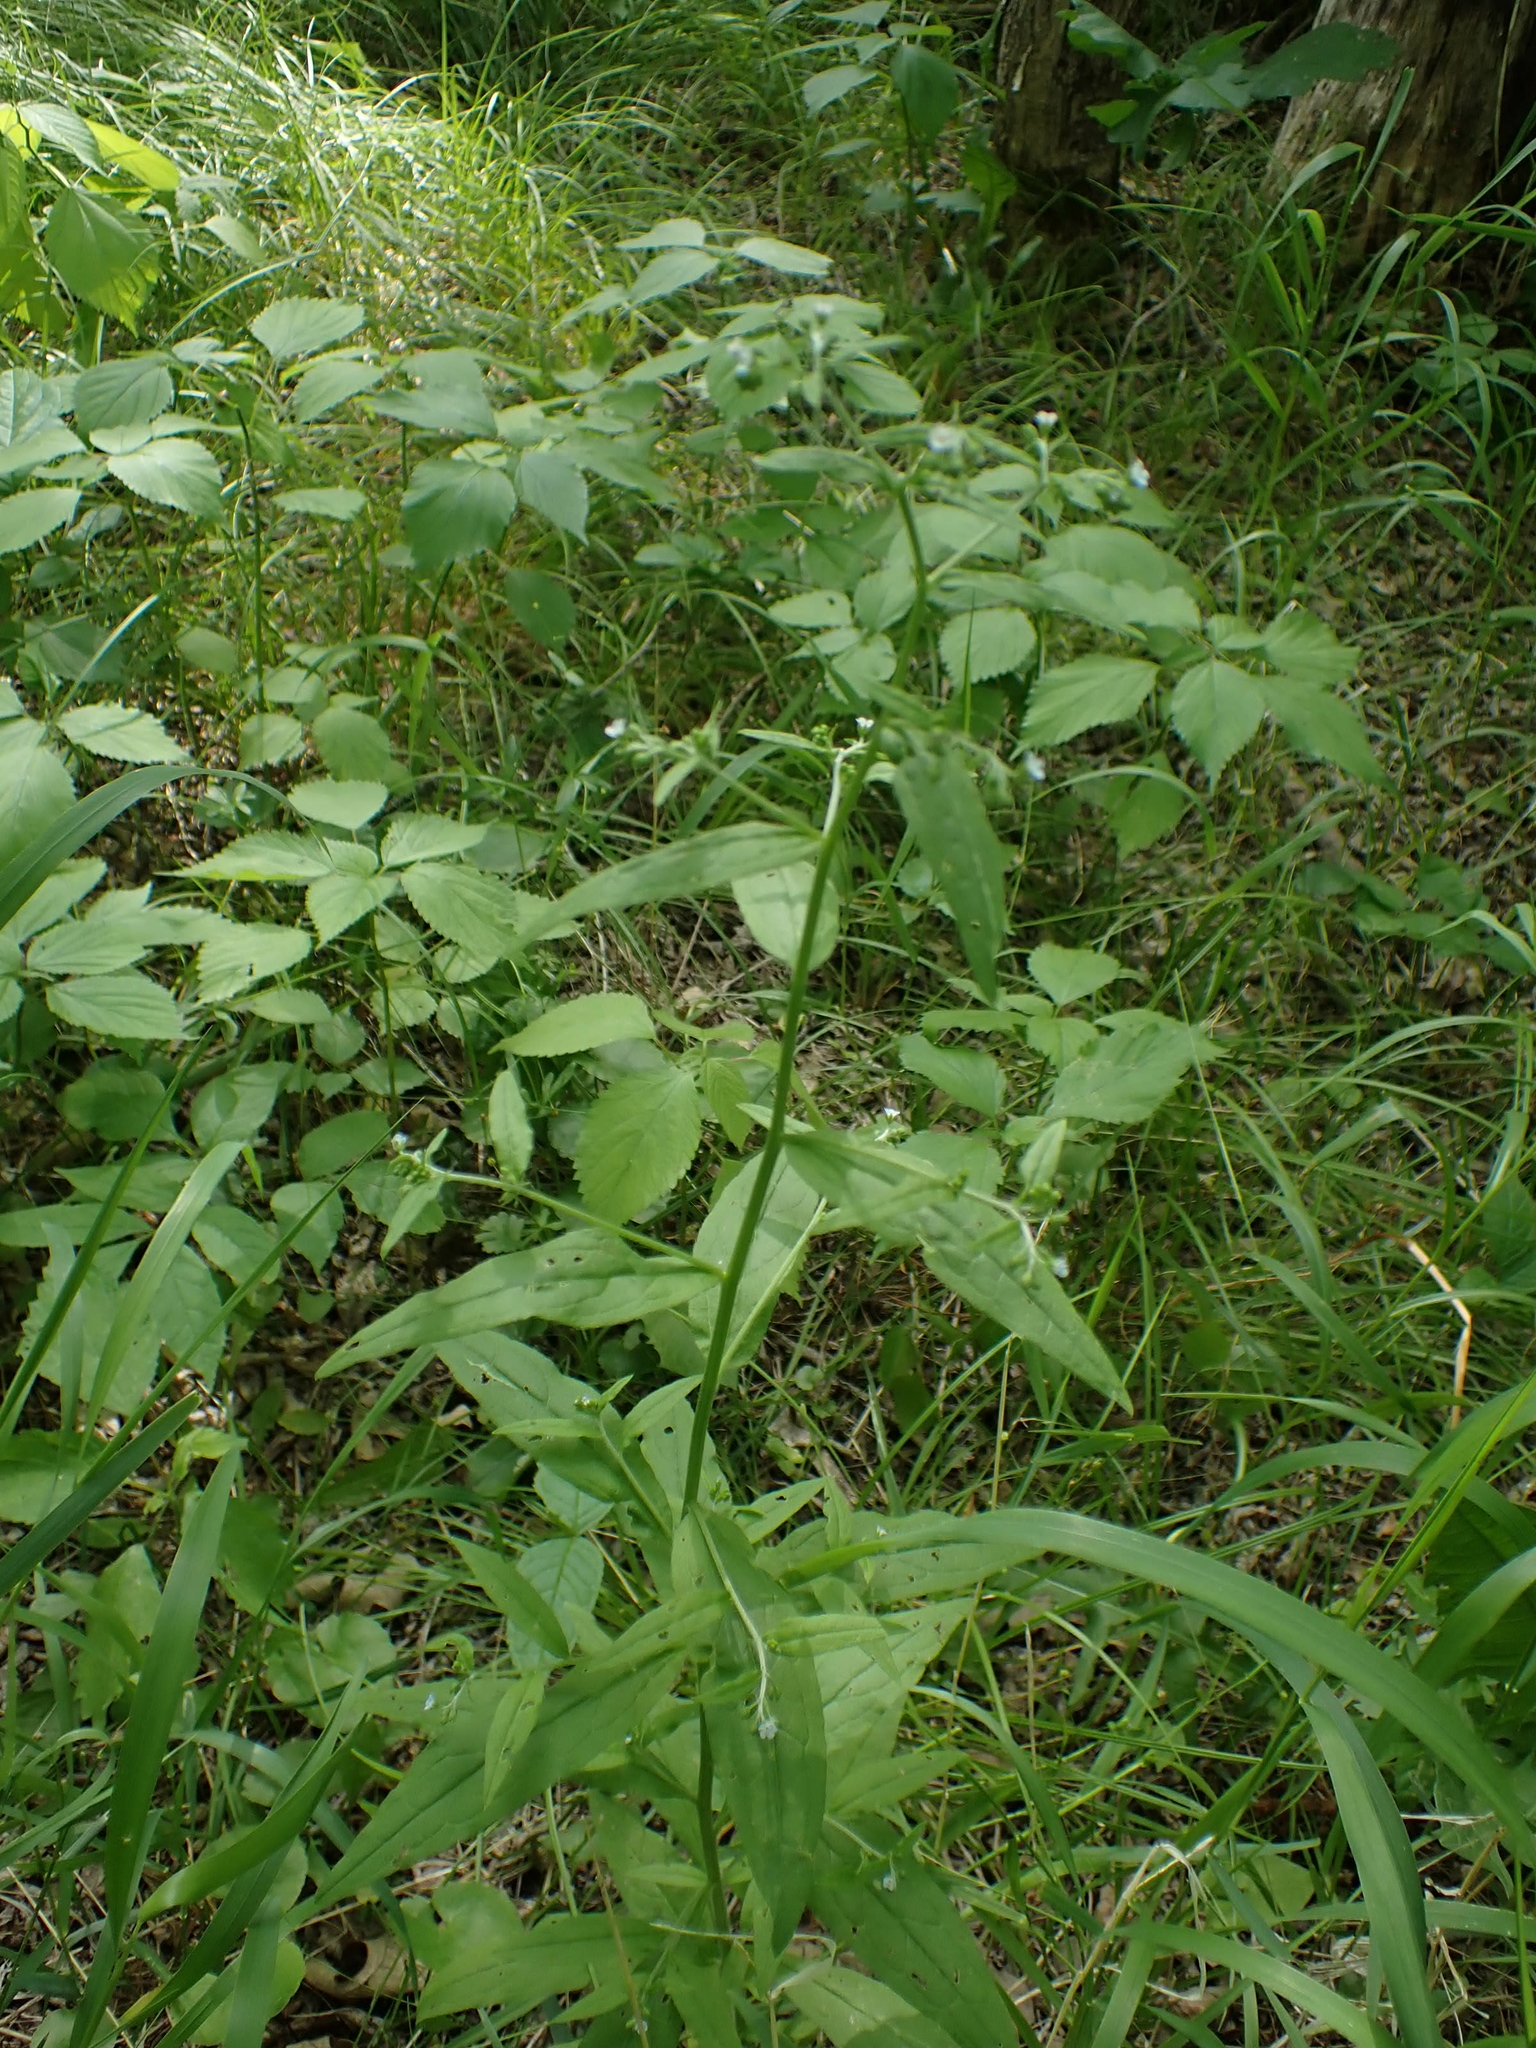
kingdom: Plantae
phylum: Tracheophyta
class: Magnoliopsida
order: Boraginales
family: Boraginaceae
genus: Hackelia
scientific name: Hackelia deflexa
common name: Nodding stickseed
